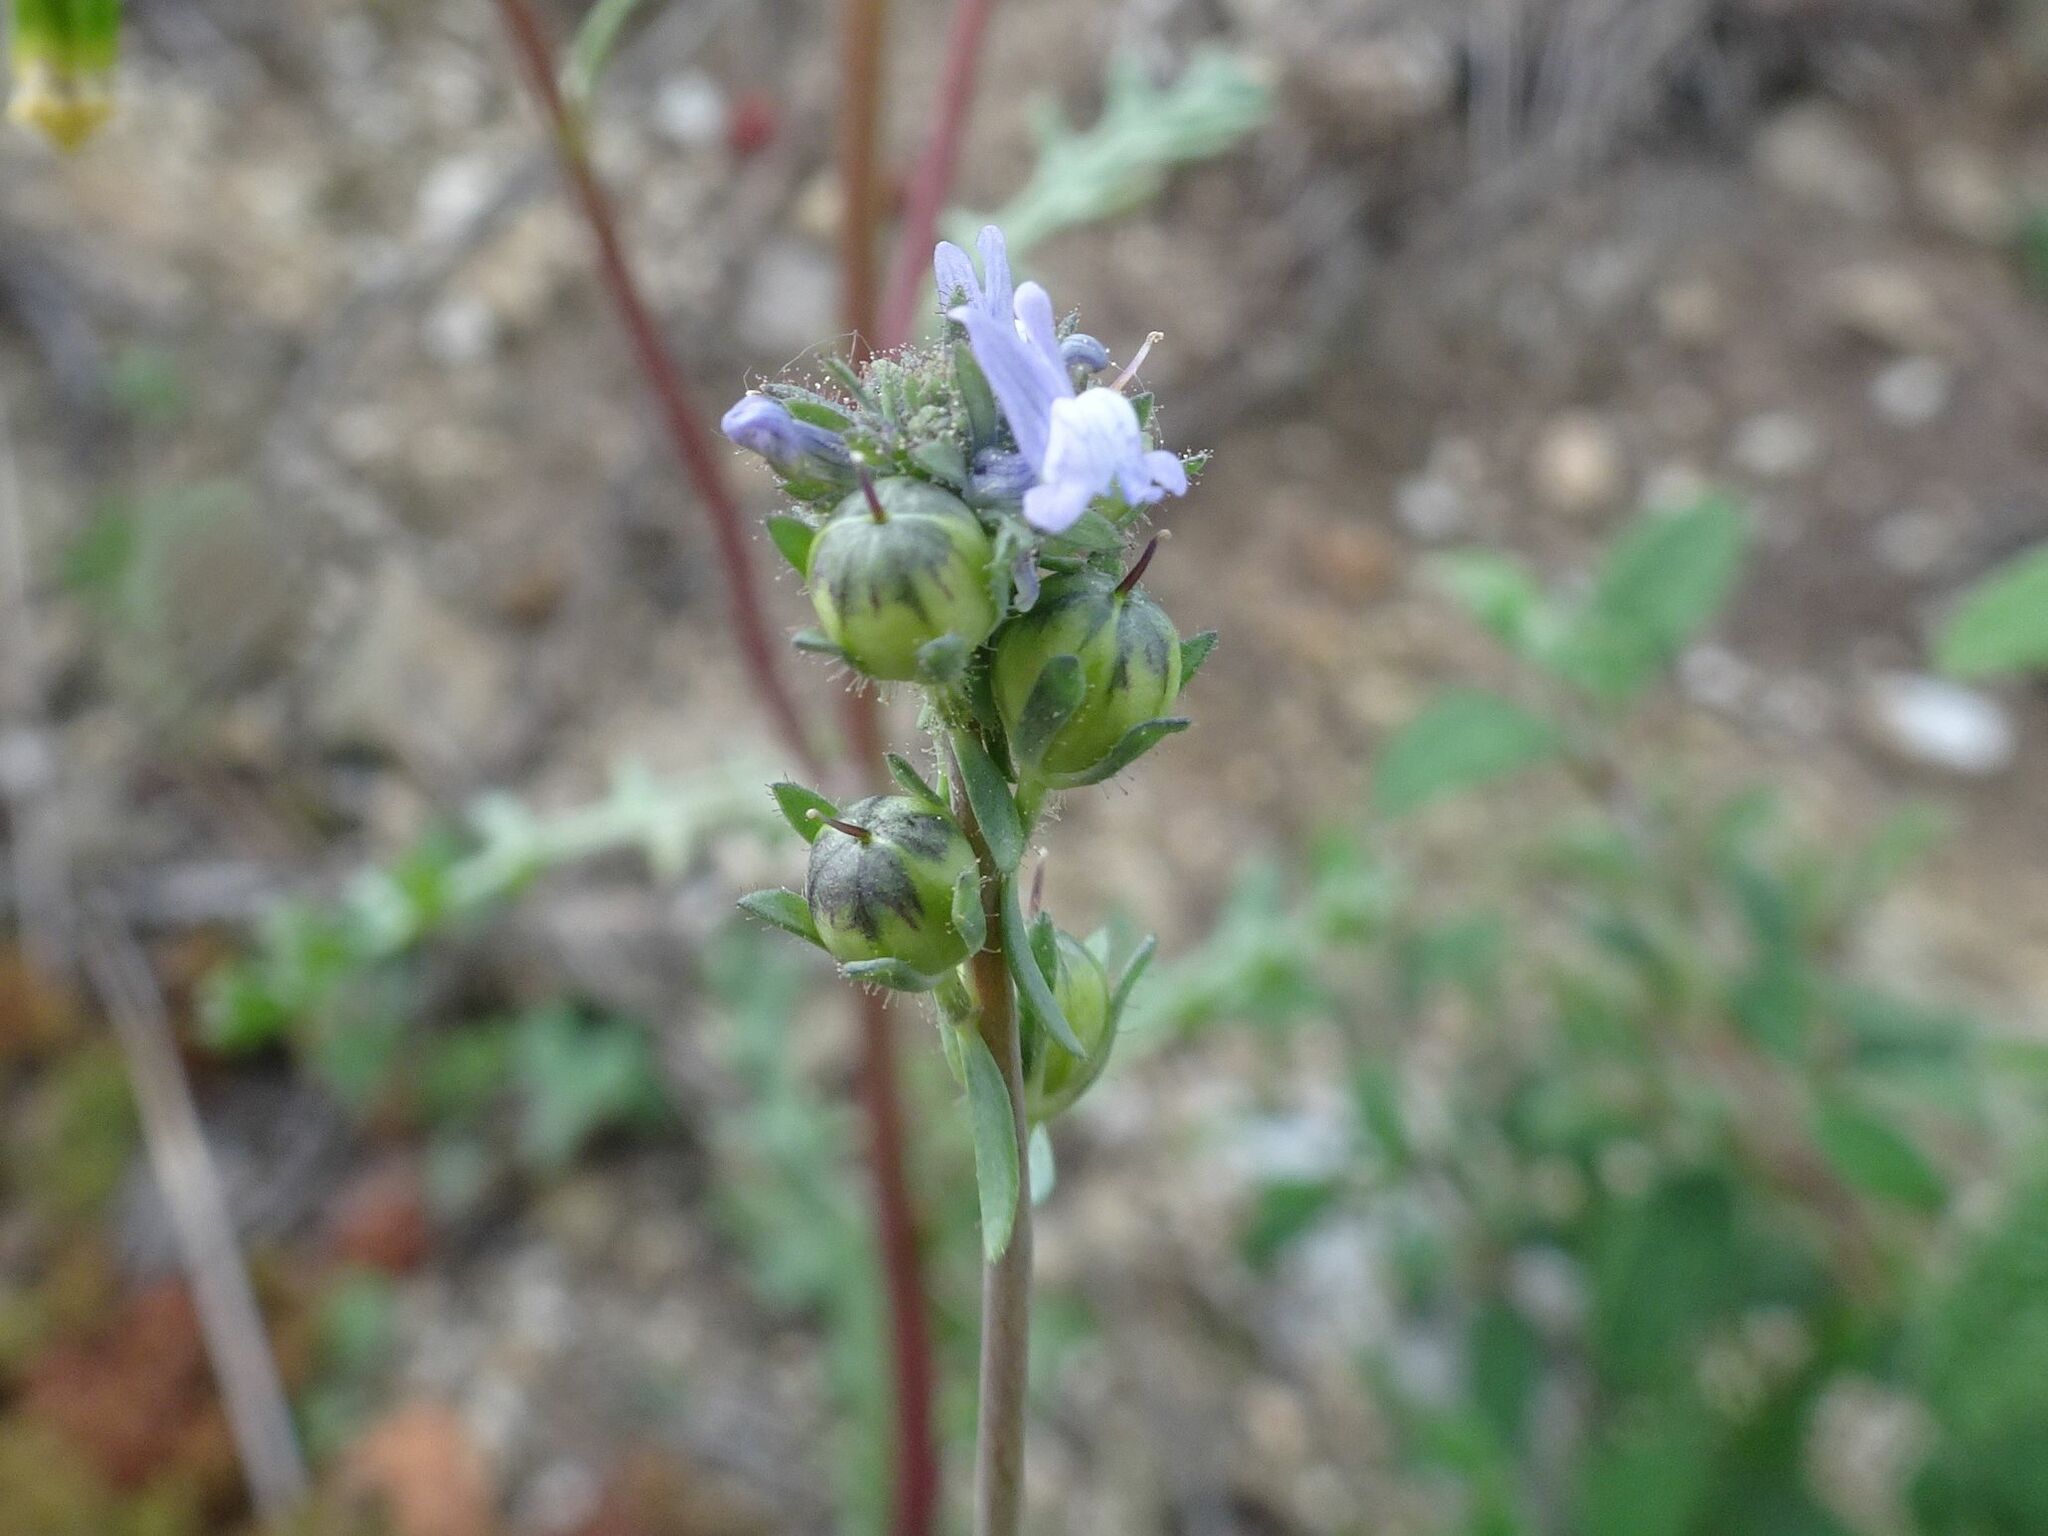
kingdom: Plantae
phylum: Tracheophyta
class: Magnoliopsida
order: Lamiales
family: Plantaginaceae
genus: Linaria
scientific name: Linaria arvensis
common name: Corn toadflax
